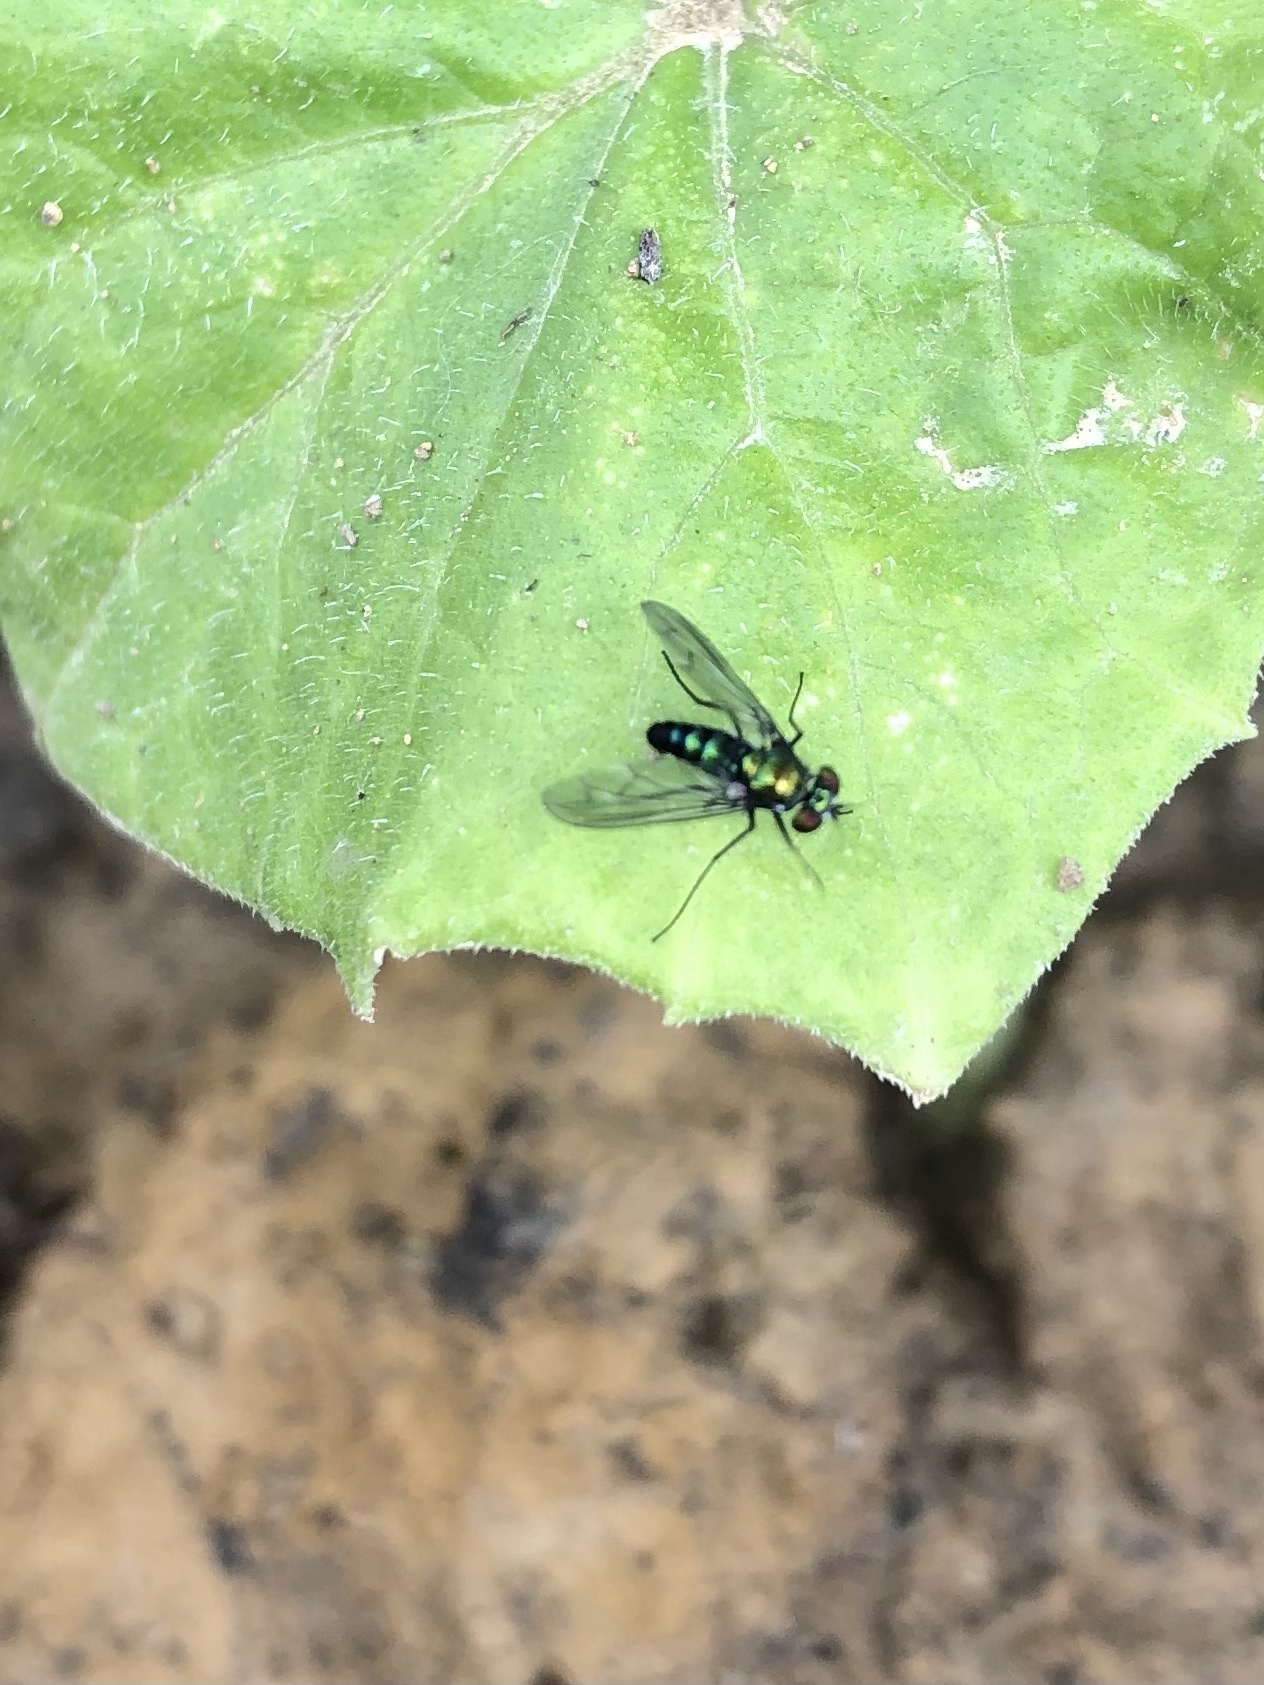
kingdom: Animalia
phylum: Arthropoda
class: Insecta
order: Diptera
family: Dolichopodidae
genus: Condylostylus
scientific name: Condylostylus patibulatus
